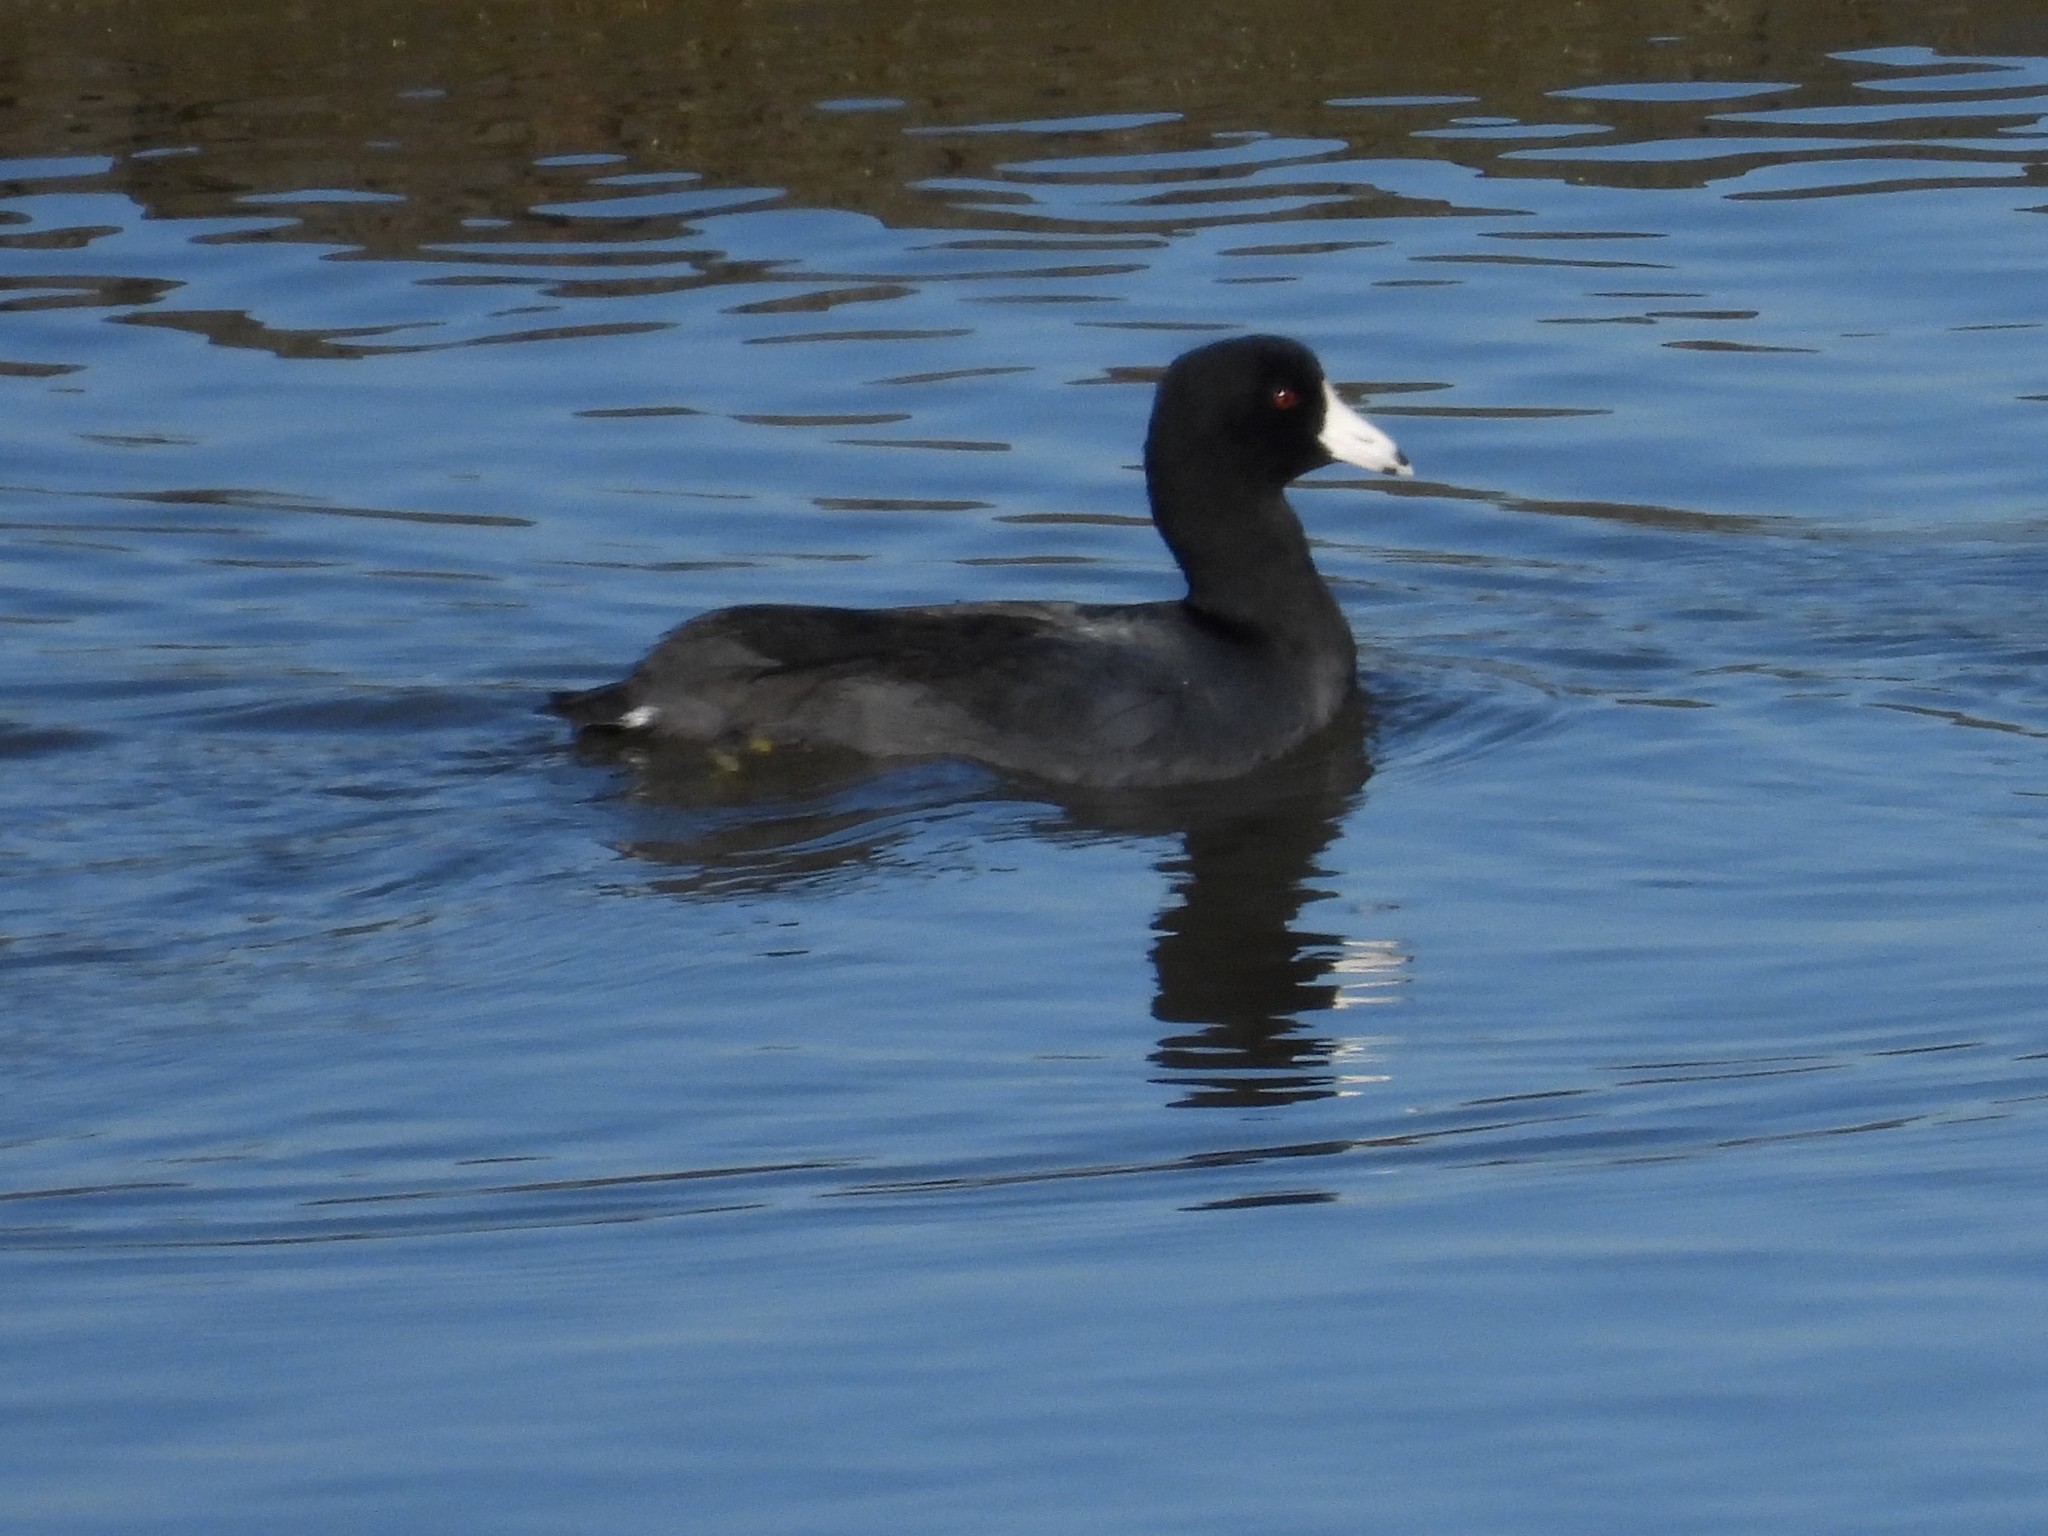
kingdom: Animalia
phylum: Chordata
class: Aves
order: Gruiformes
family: Rallidae
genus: Fulica
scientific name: Fulica americana
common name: American coot
